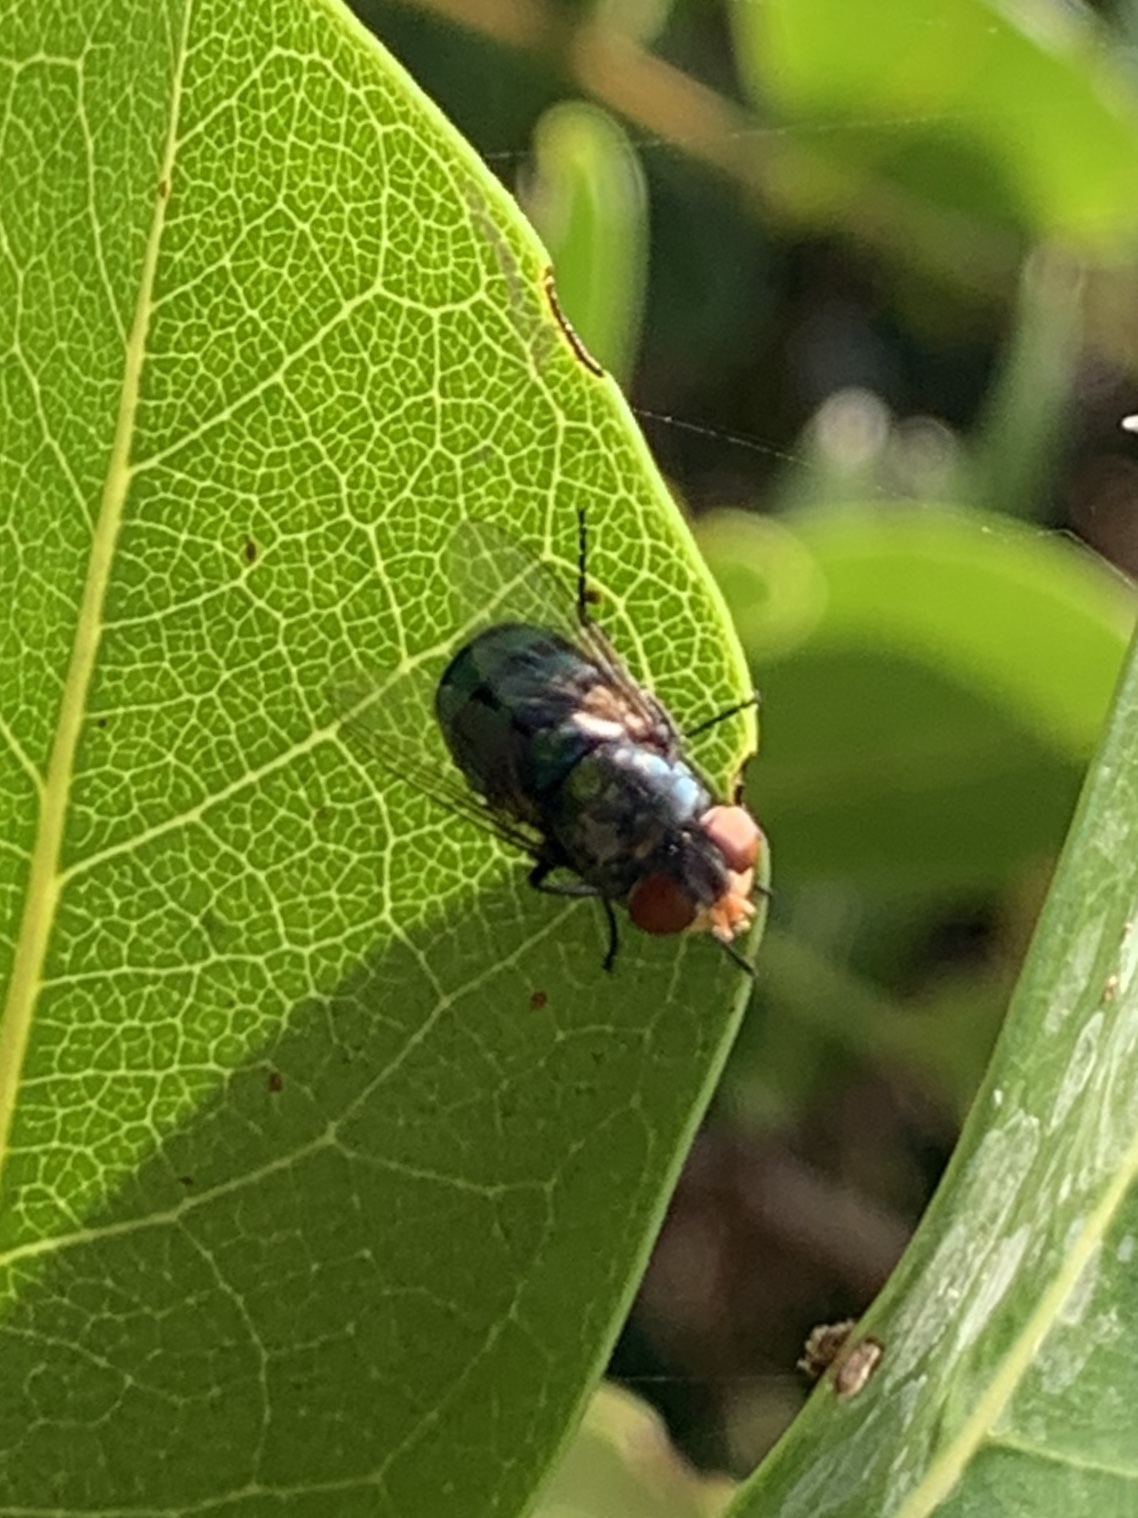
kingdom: Animalia
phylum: Arthropoda
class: Insecta
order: Diptera
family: Calliphoridae
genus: Chrysomya
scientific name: Chrysomya megacephala
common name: Blow fly
